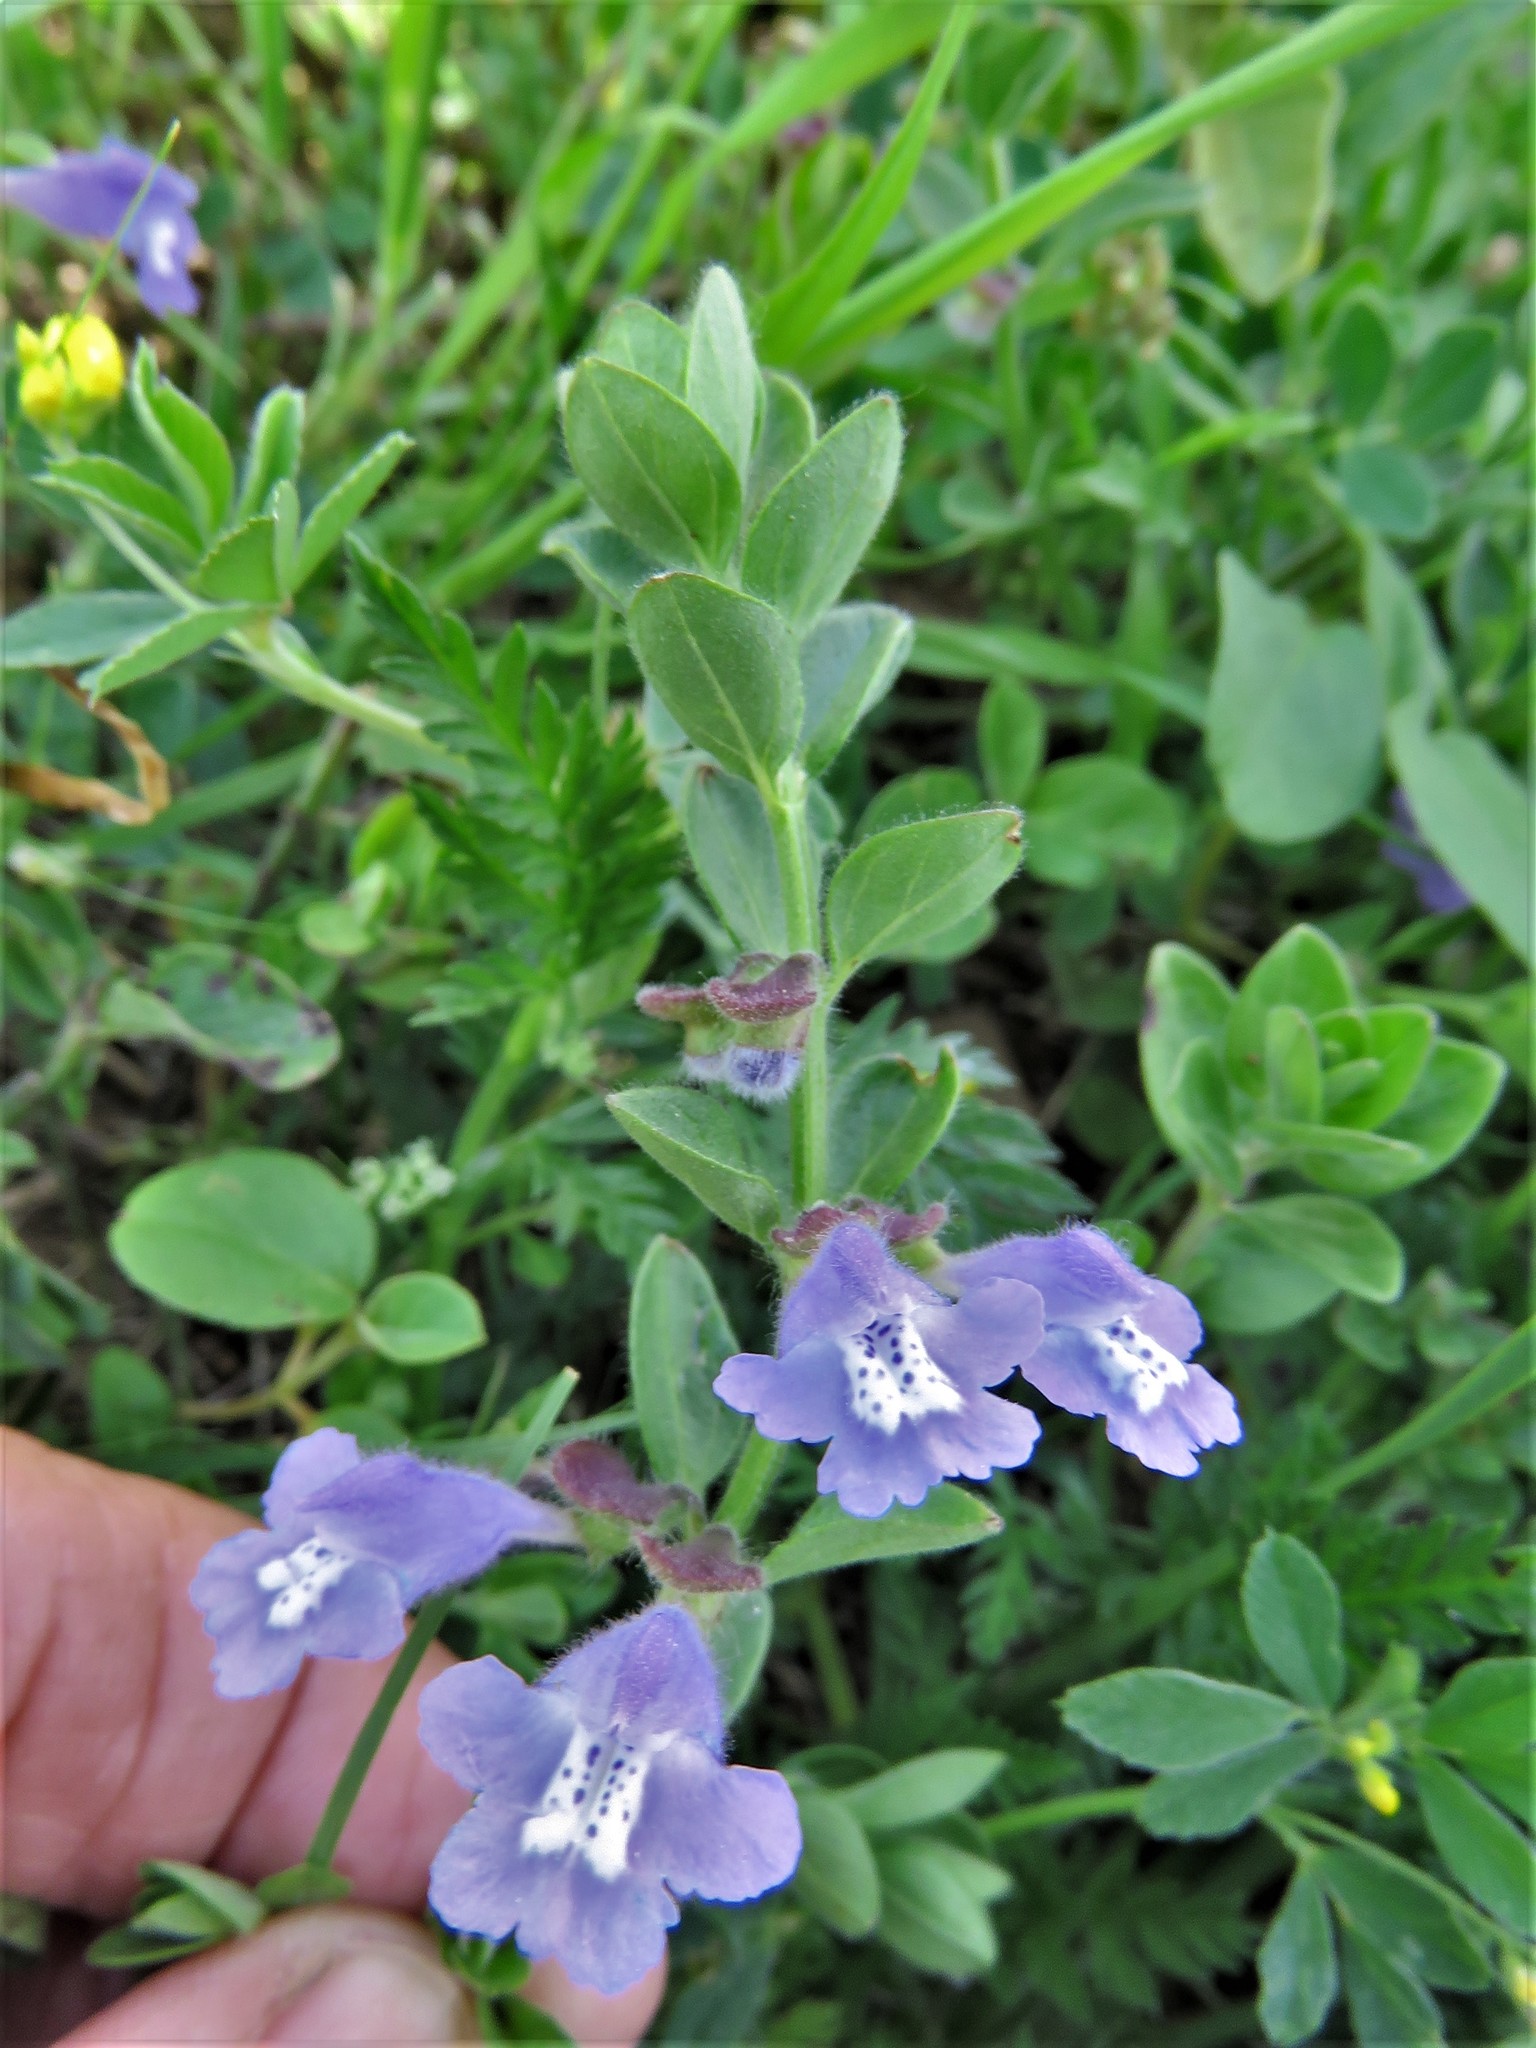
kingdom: Plantae
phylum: Tracheophyta
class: Magnoliopsida
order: Lamiales
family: Lamiaceae
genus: Scutellaria
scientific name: Scutellaria drummondii
